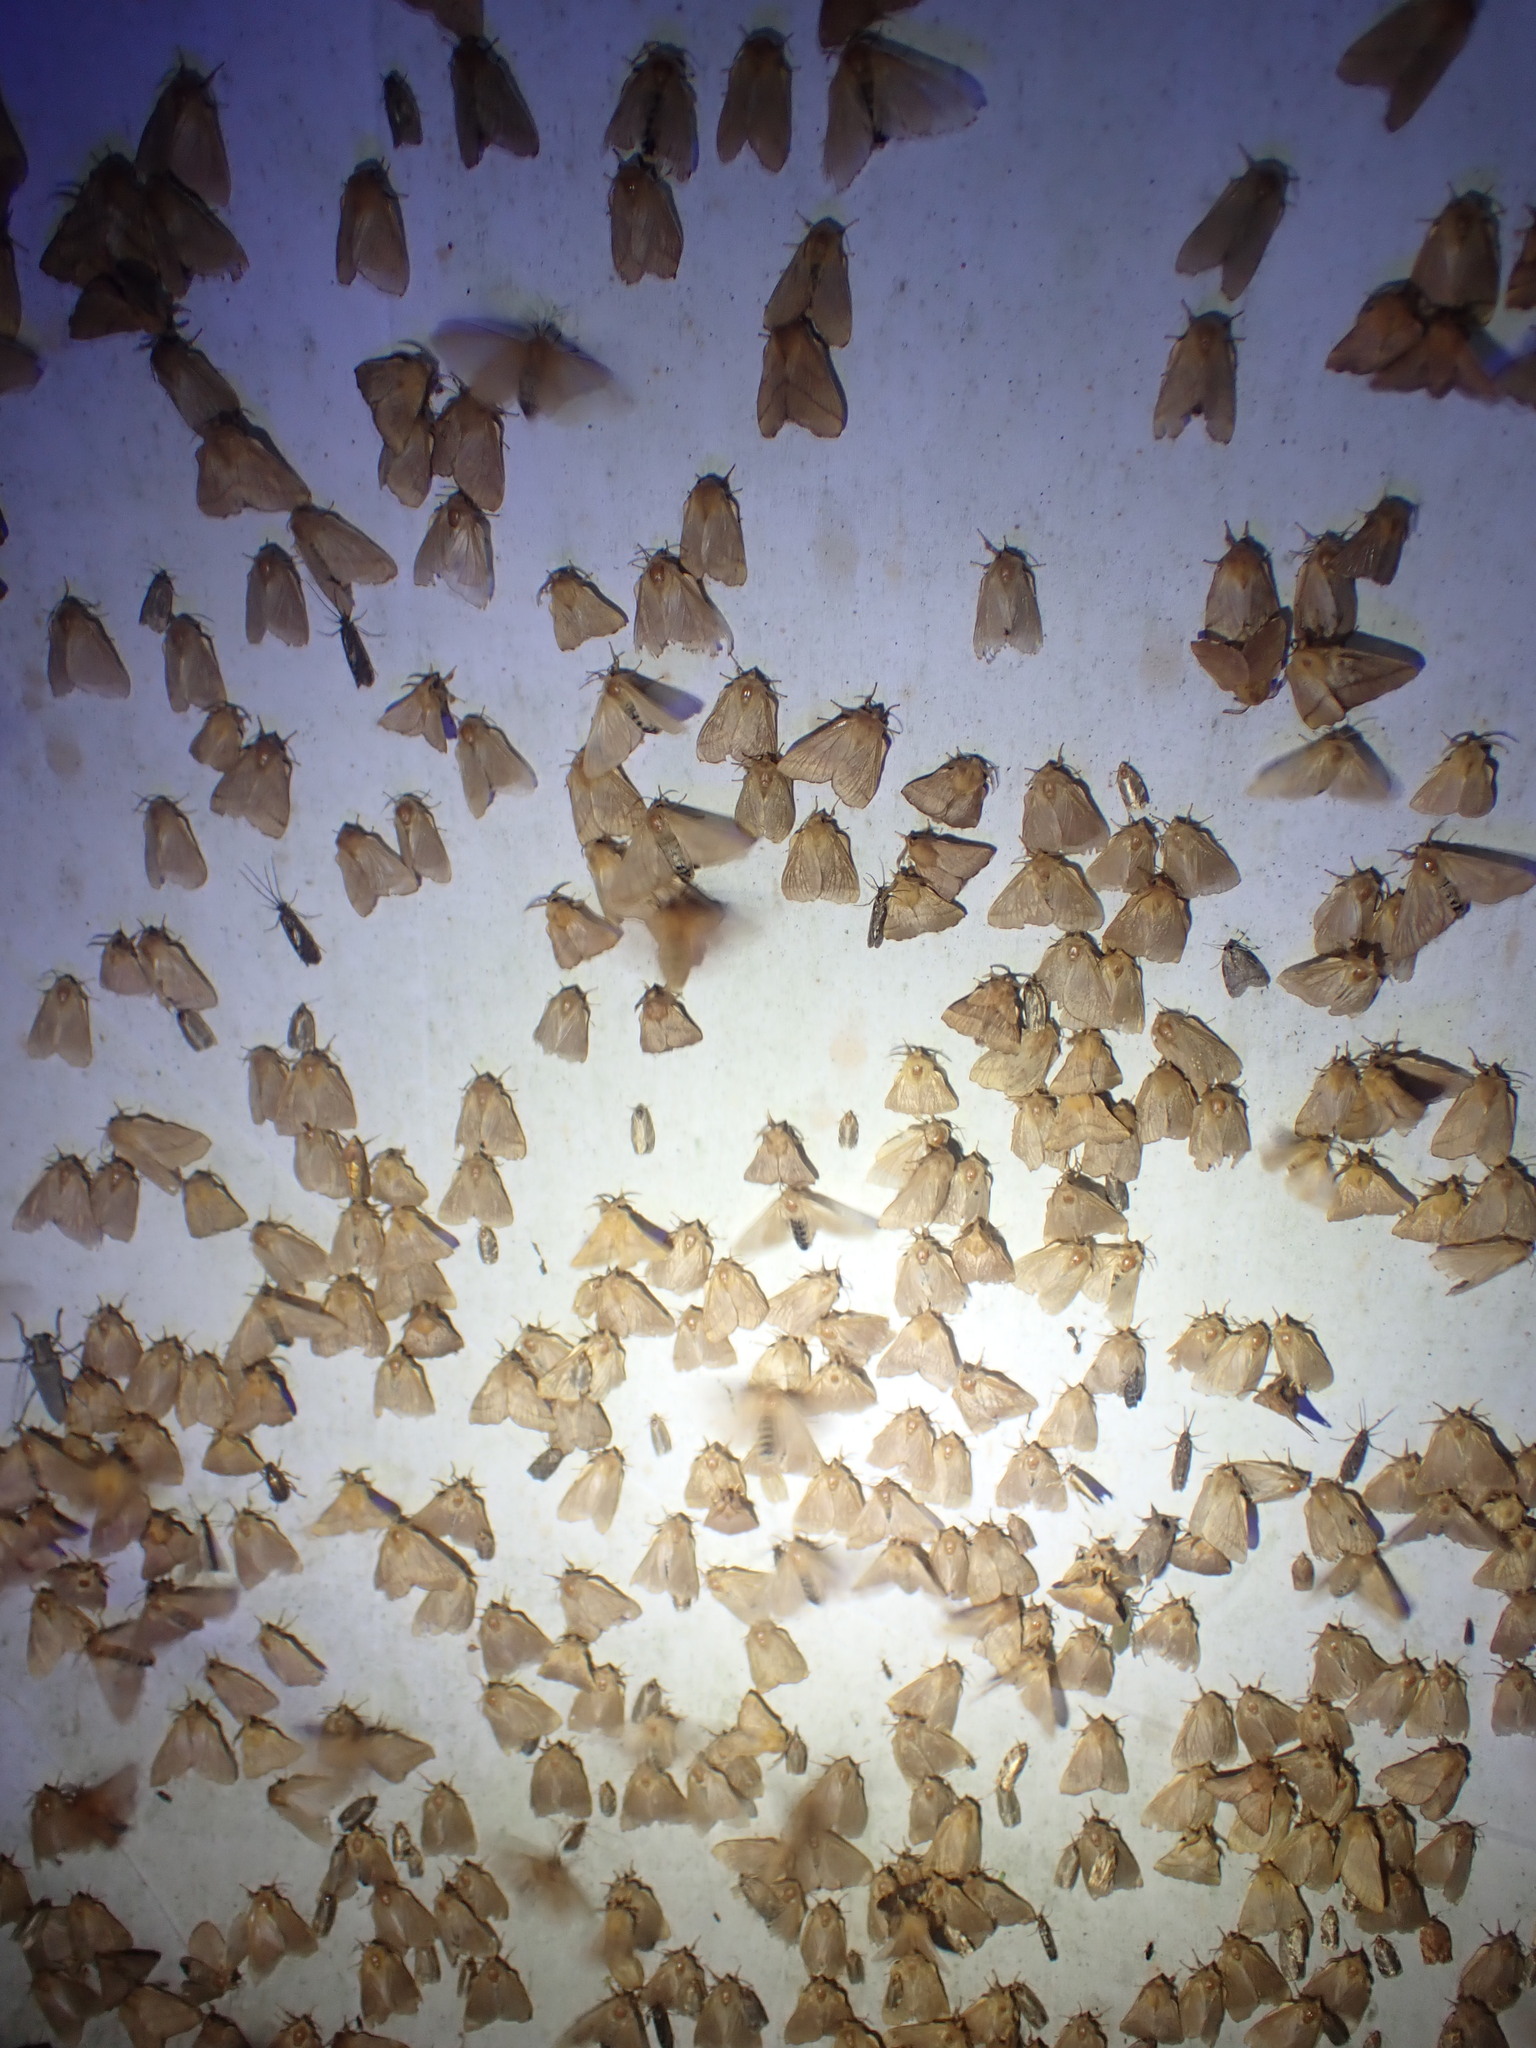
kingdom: Animalia
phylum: Arthropoda
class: Insecta
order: Lepidoptera
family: Lasiocampidae
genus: Malacosoma
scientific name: Malacosoma disstria
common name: Forest tent caterpillar
